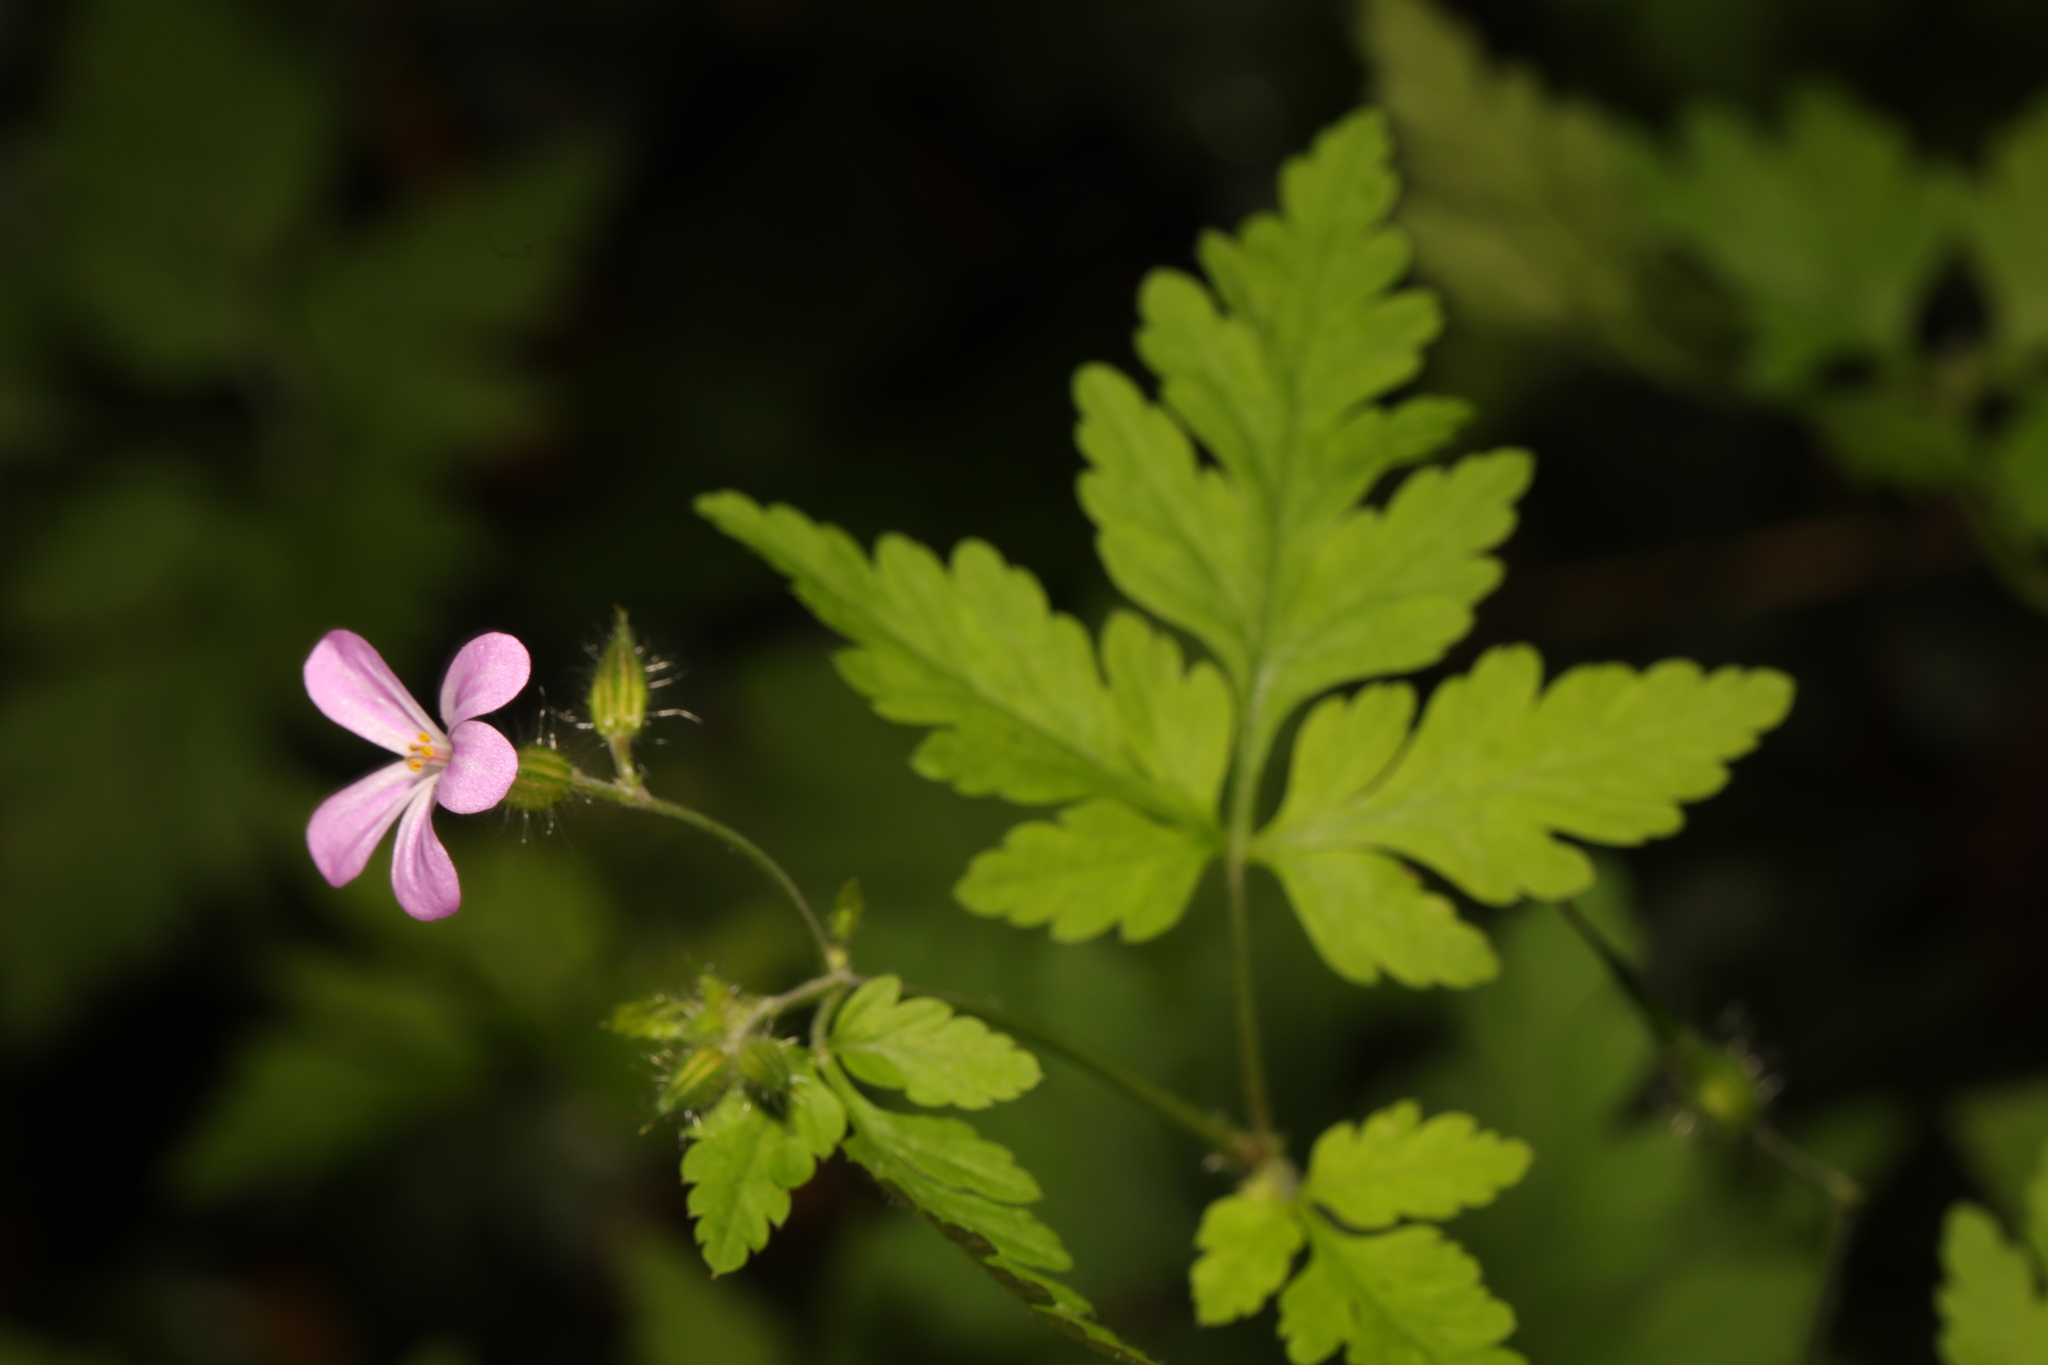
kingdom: Plantae
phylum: Tracheophyta
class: Magnoliopsida
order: Geraniales
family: Geraniaceae
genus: Geranium
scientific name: Geranium robertianum
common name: Herb-robert
